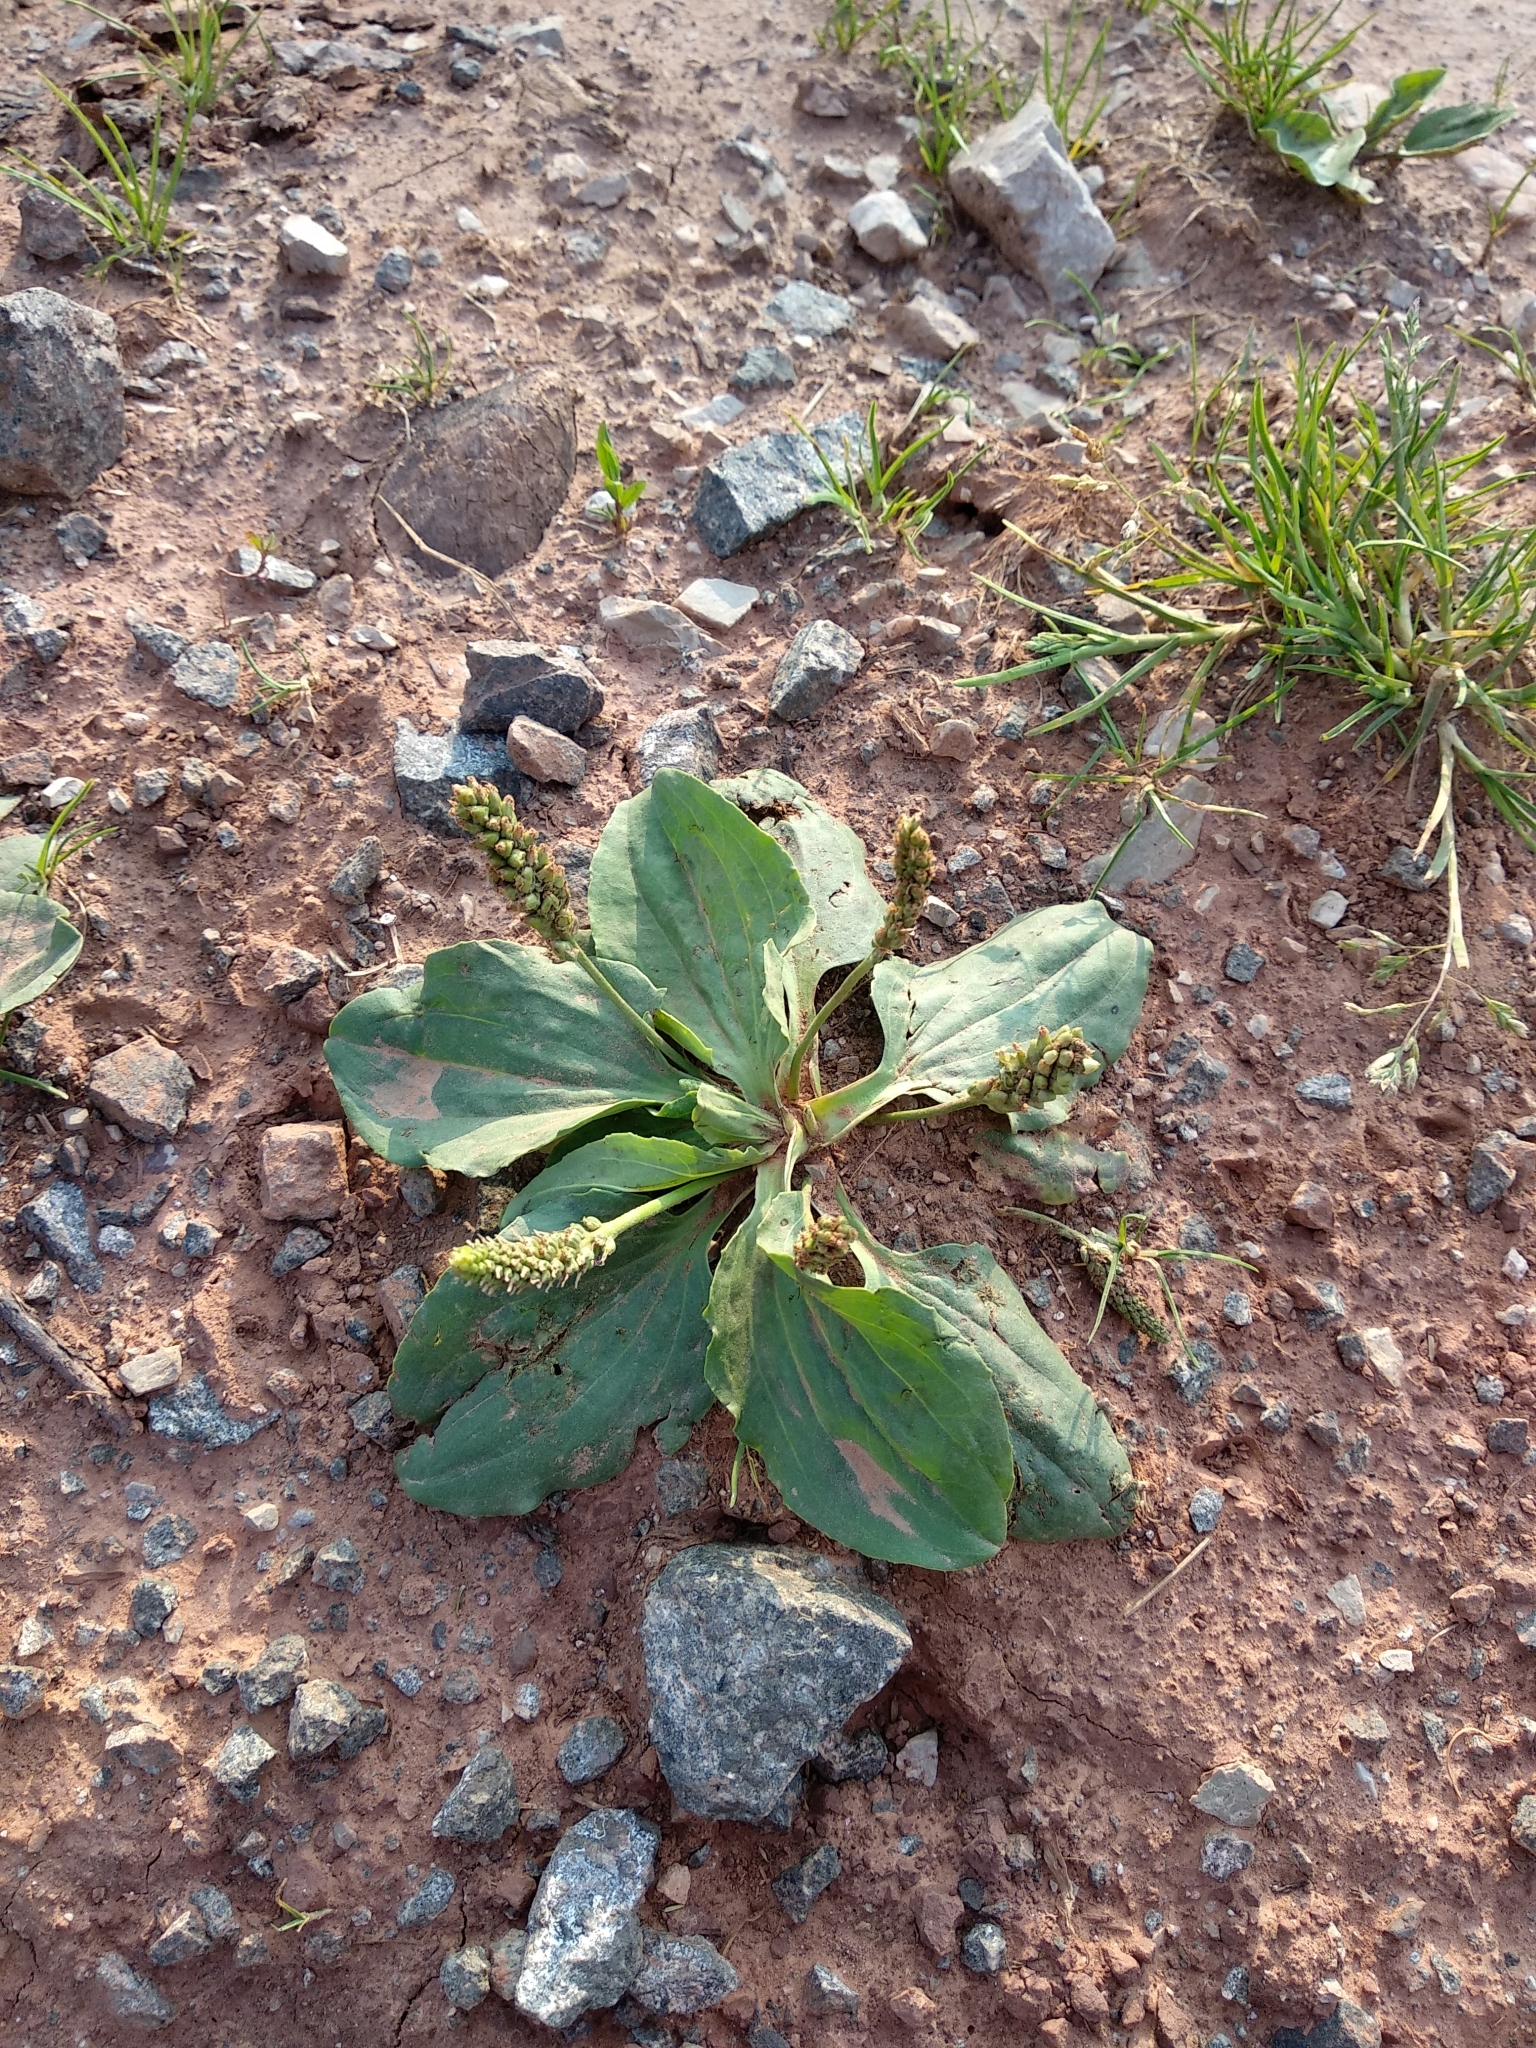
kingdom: Plantae
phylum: Tracheophyta
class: Magnoliopsida
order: Lamiales
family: Plantaginaceae
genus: Plantago
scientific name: Plantago major
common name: Common plantain
